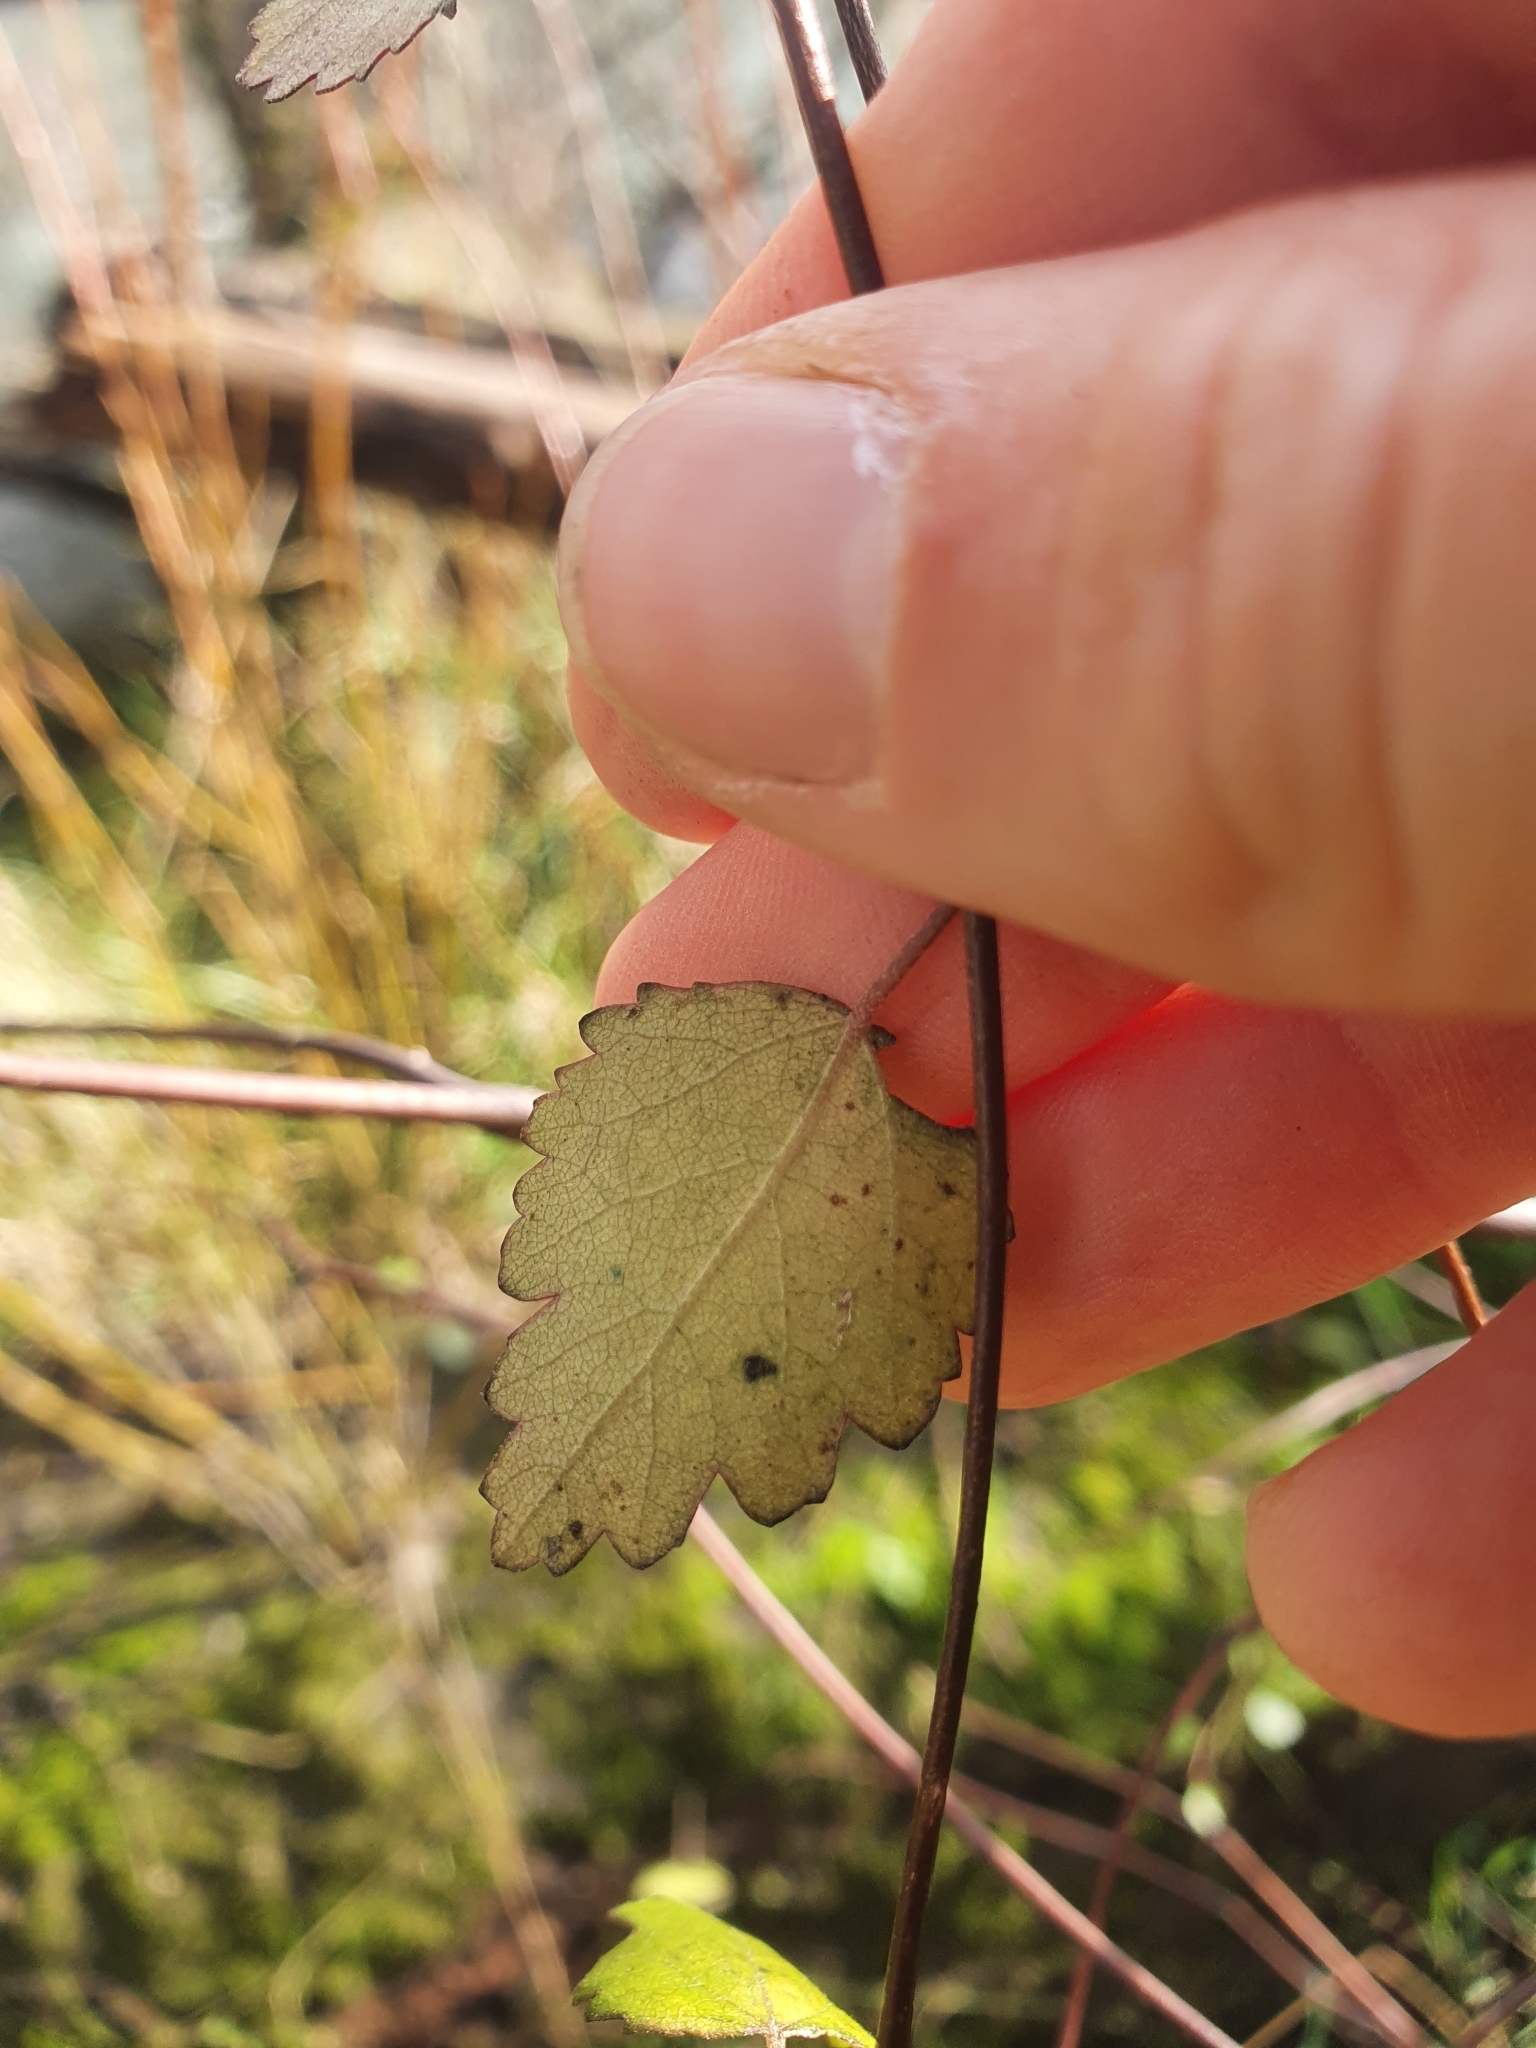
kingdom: Plantae
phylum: Tracheophyta
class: Magnoliopsida
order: Malvales
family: Malvaceae
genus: Plagianthus
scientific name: Plagianthus regius
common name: Manatu
